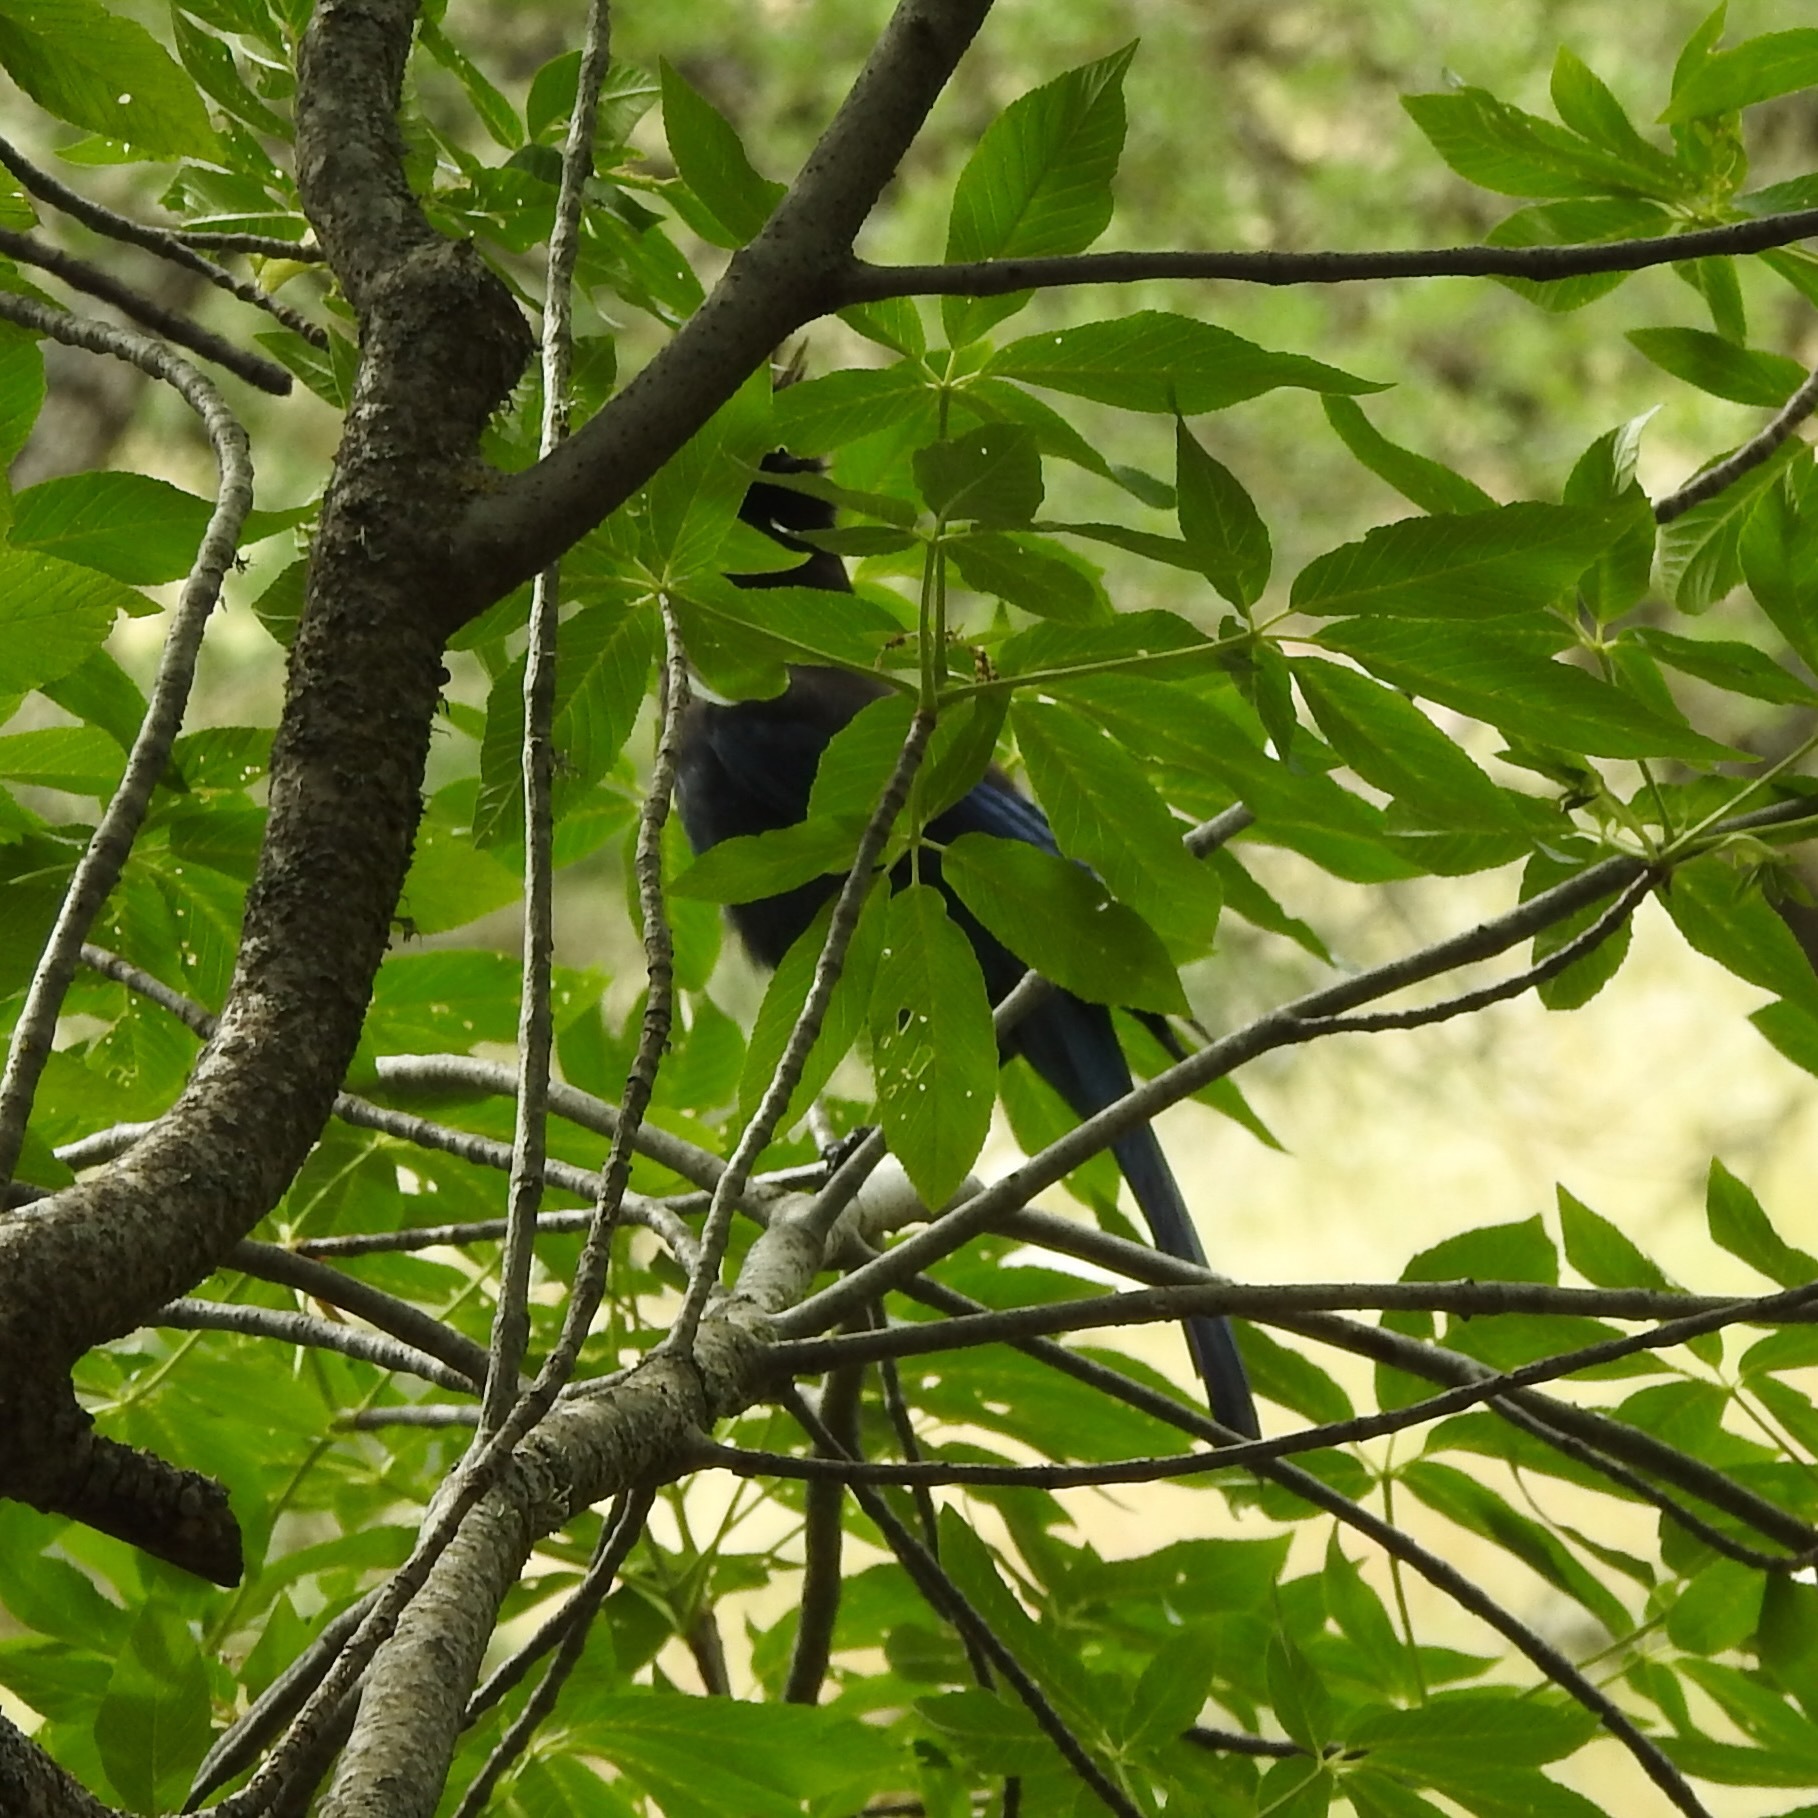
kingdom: Plantae
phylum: Tracheophyta
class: Magnoliopsida
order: Sapindales
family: Sapindaceae
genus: Aesculus
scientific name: Aesculus californica
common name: California buckeye
